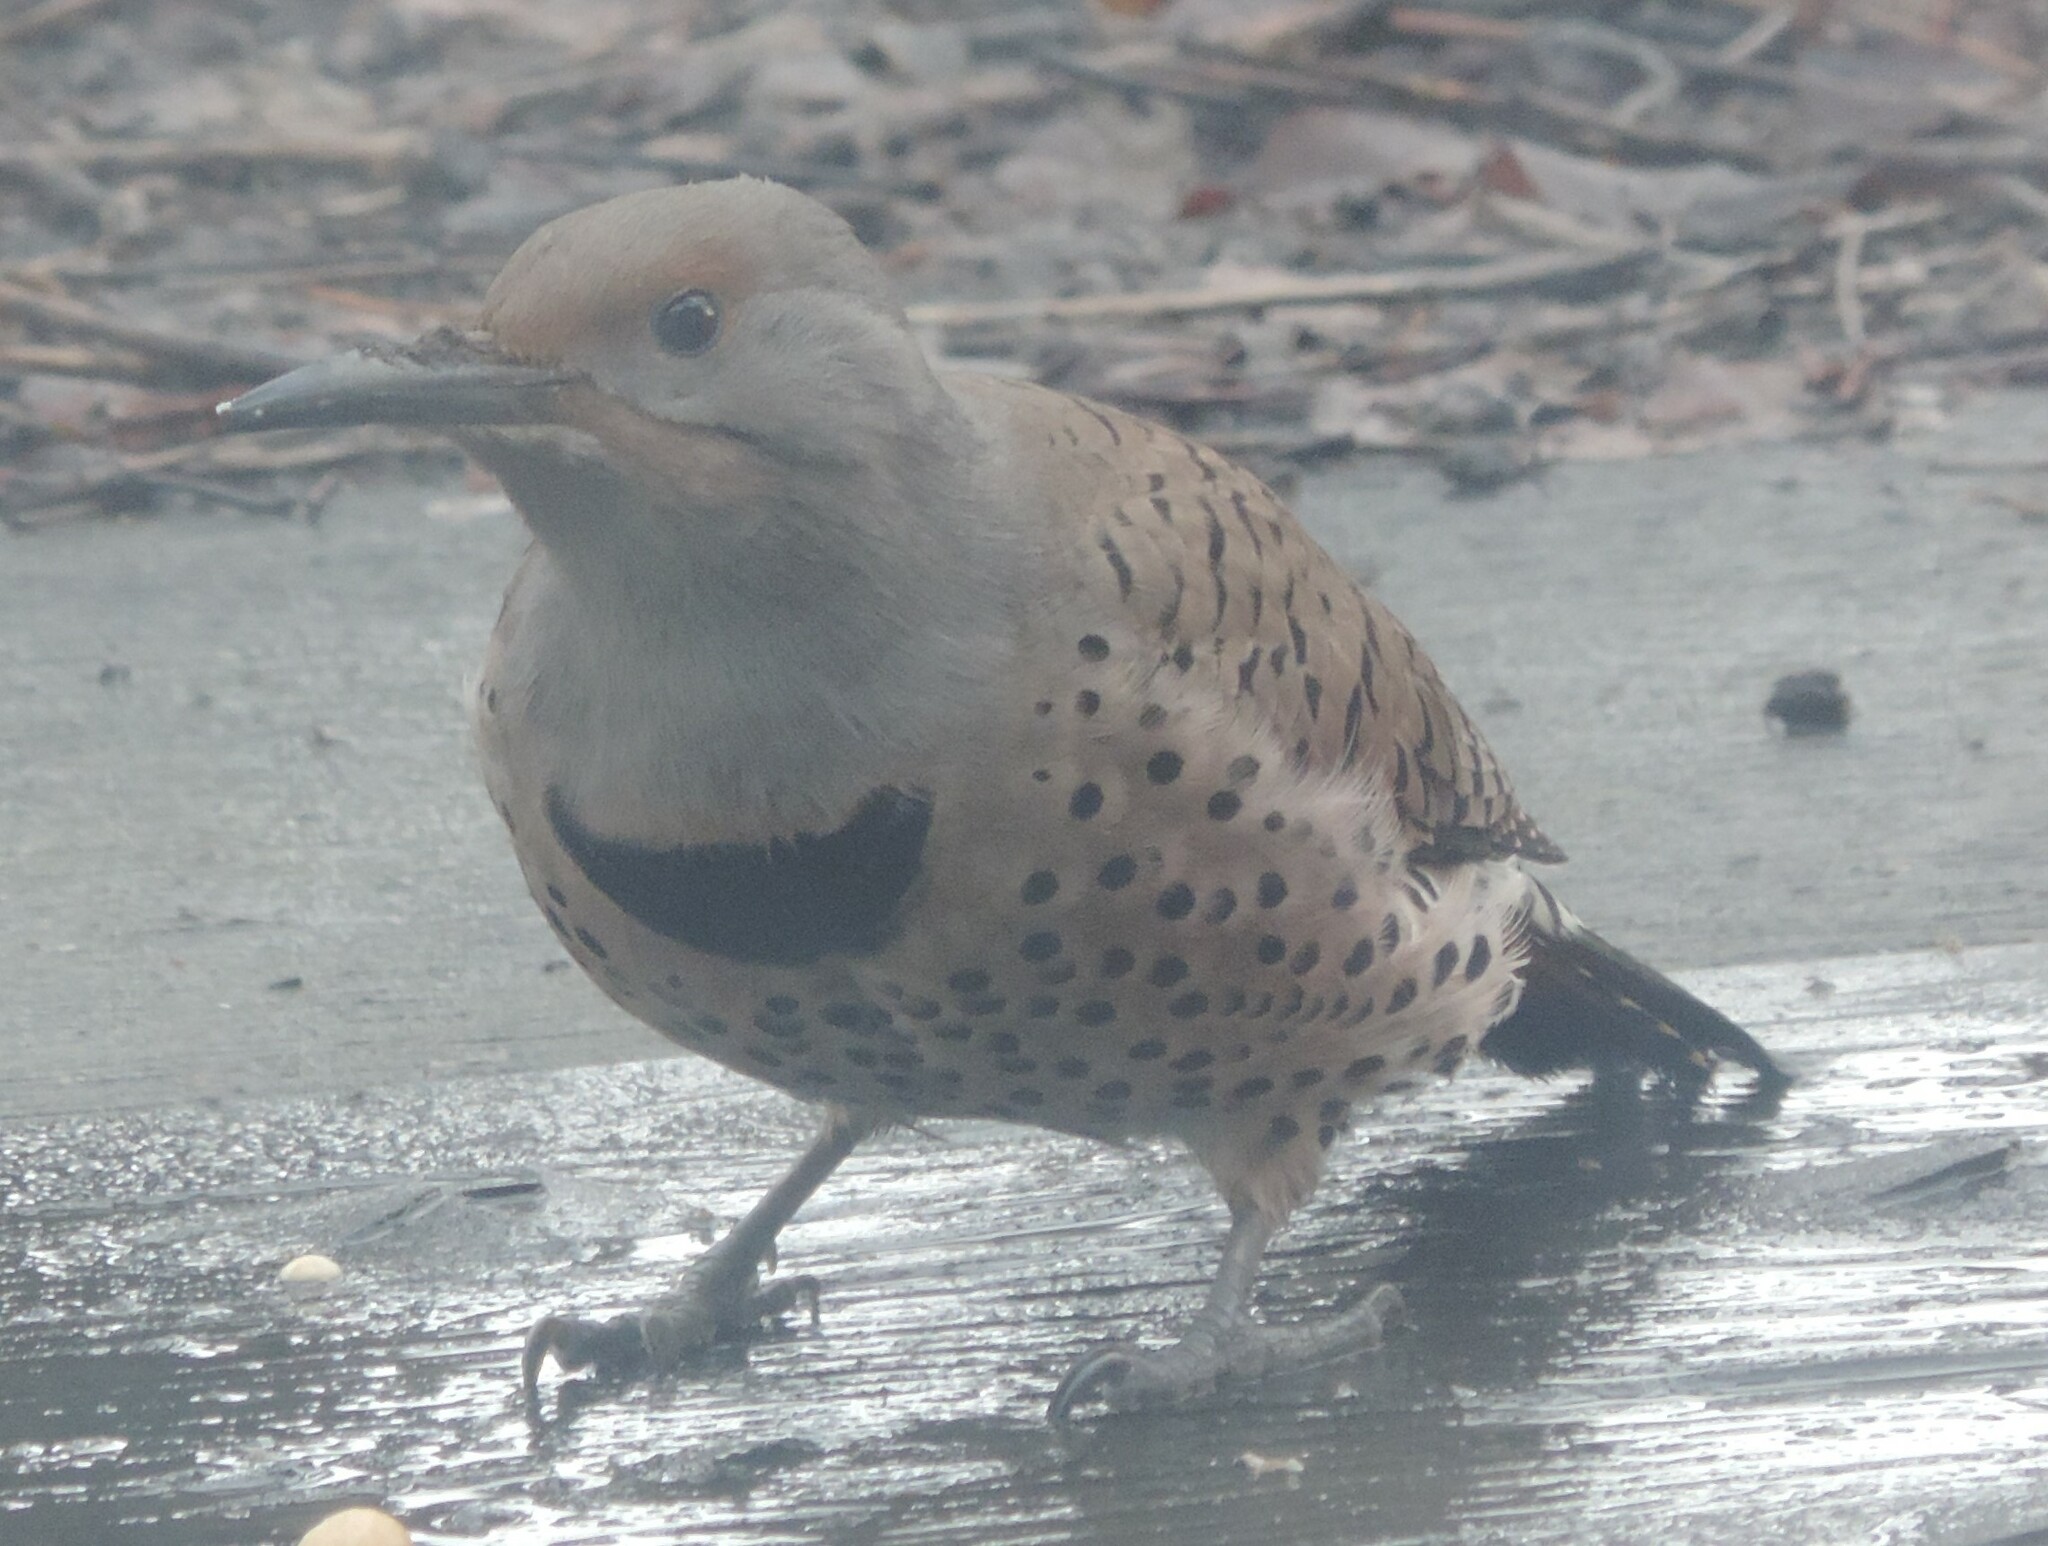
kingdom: Animalia
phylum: Chordata
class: Aves
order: Piciformes
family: Picidae
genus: Colaptes
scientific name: Colaptes auratus
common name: Northern flicker
